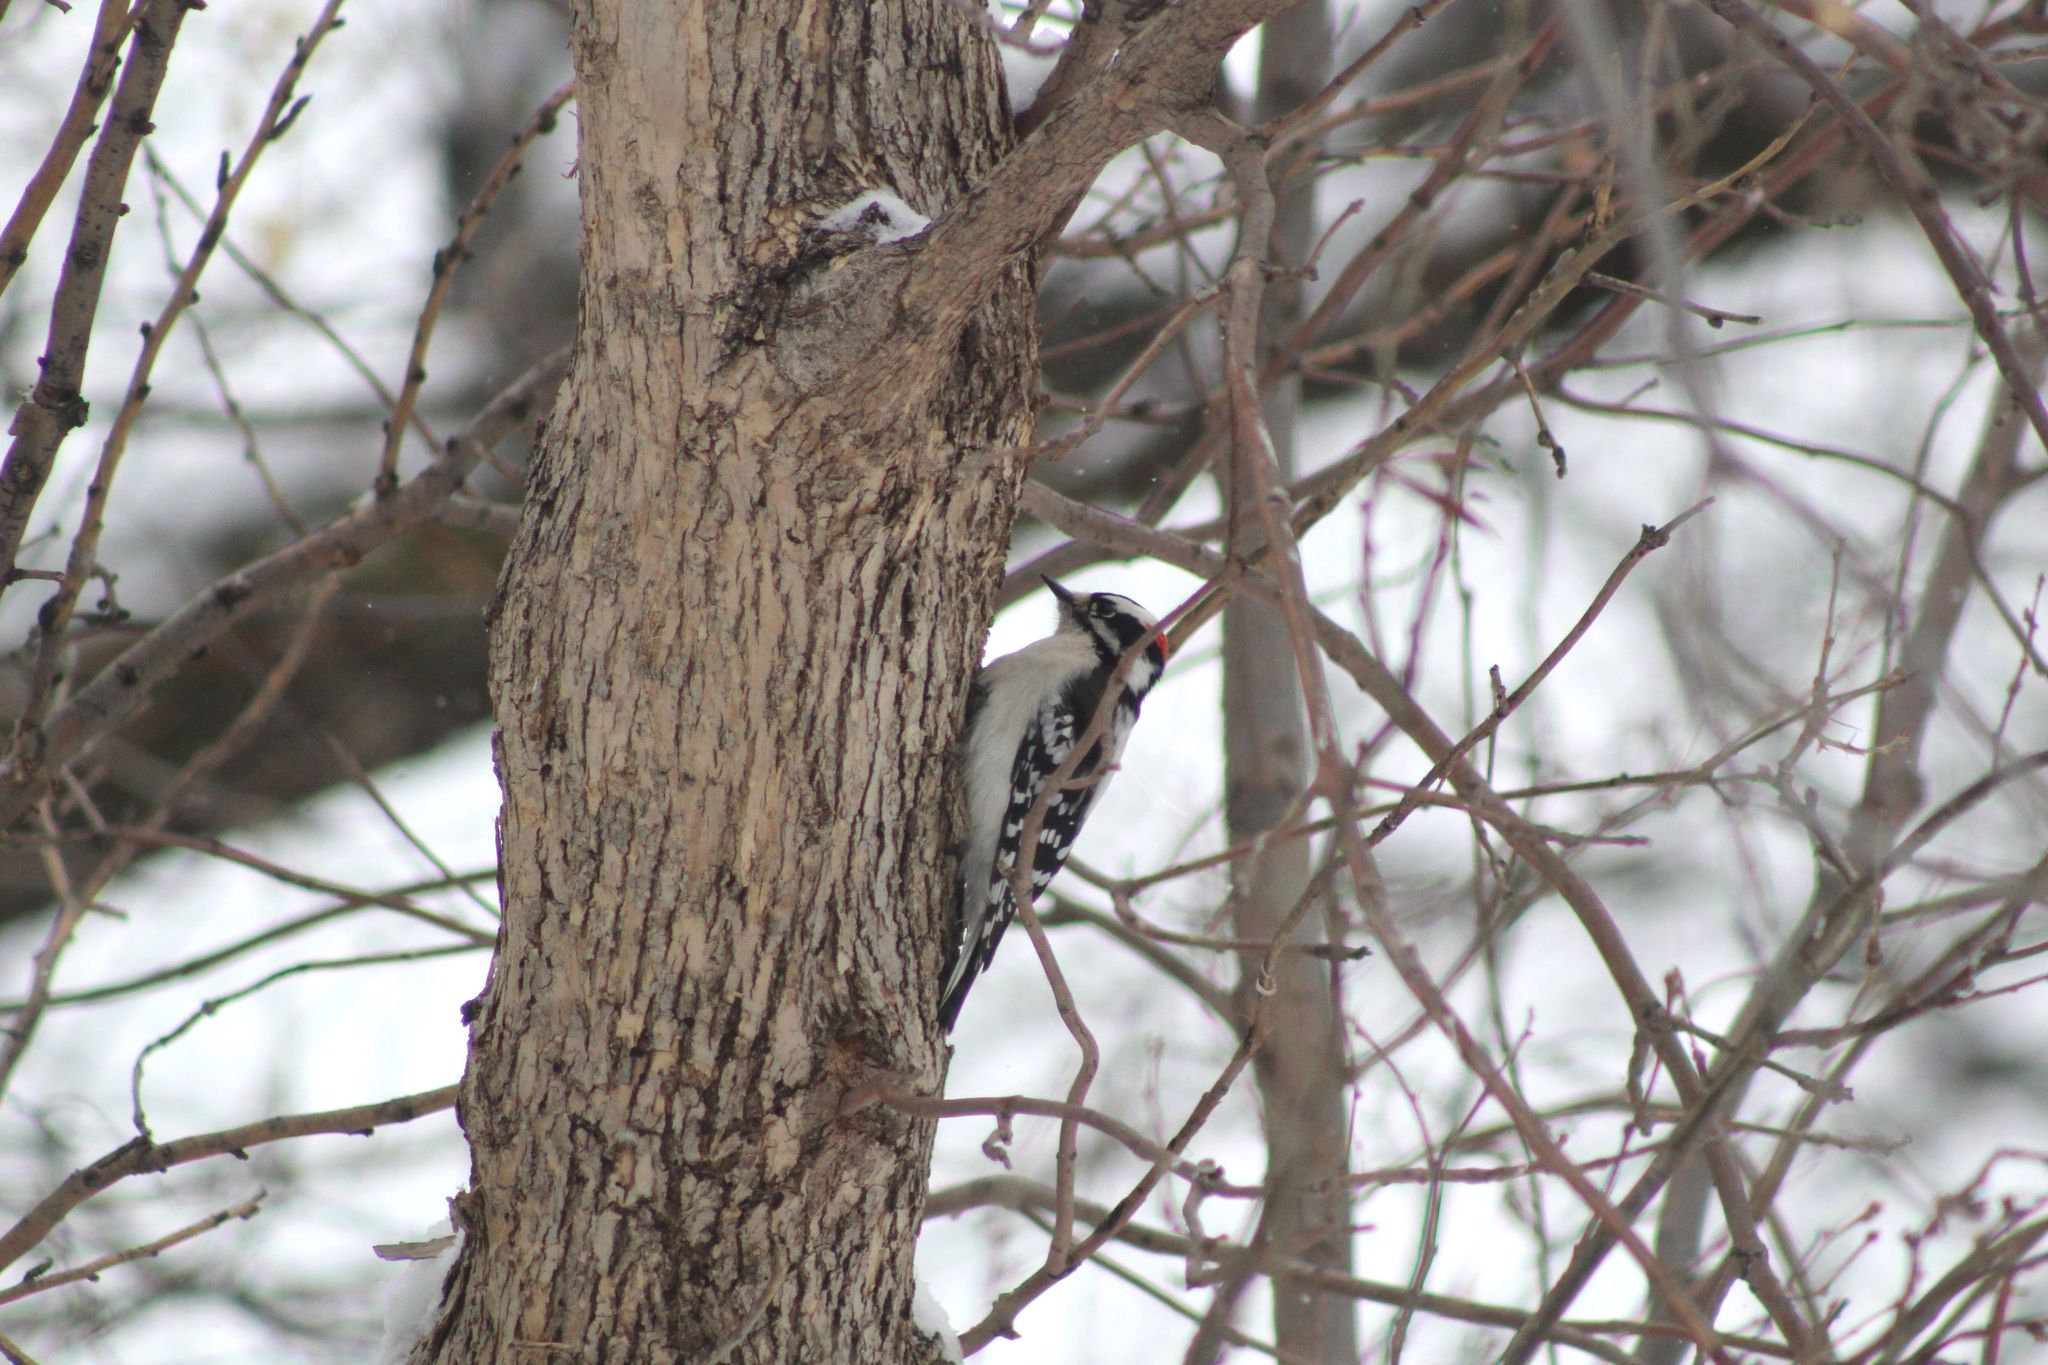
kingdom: Animalia
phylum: Chordata
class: Aves
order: Piciformes
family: Picidae
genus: Dryobates
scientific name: Dryobates pubescens
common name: Downy woodpecker
